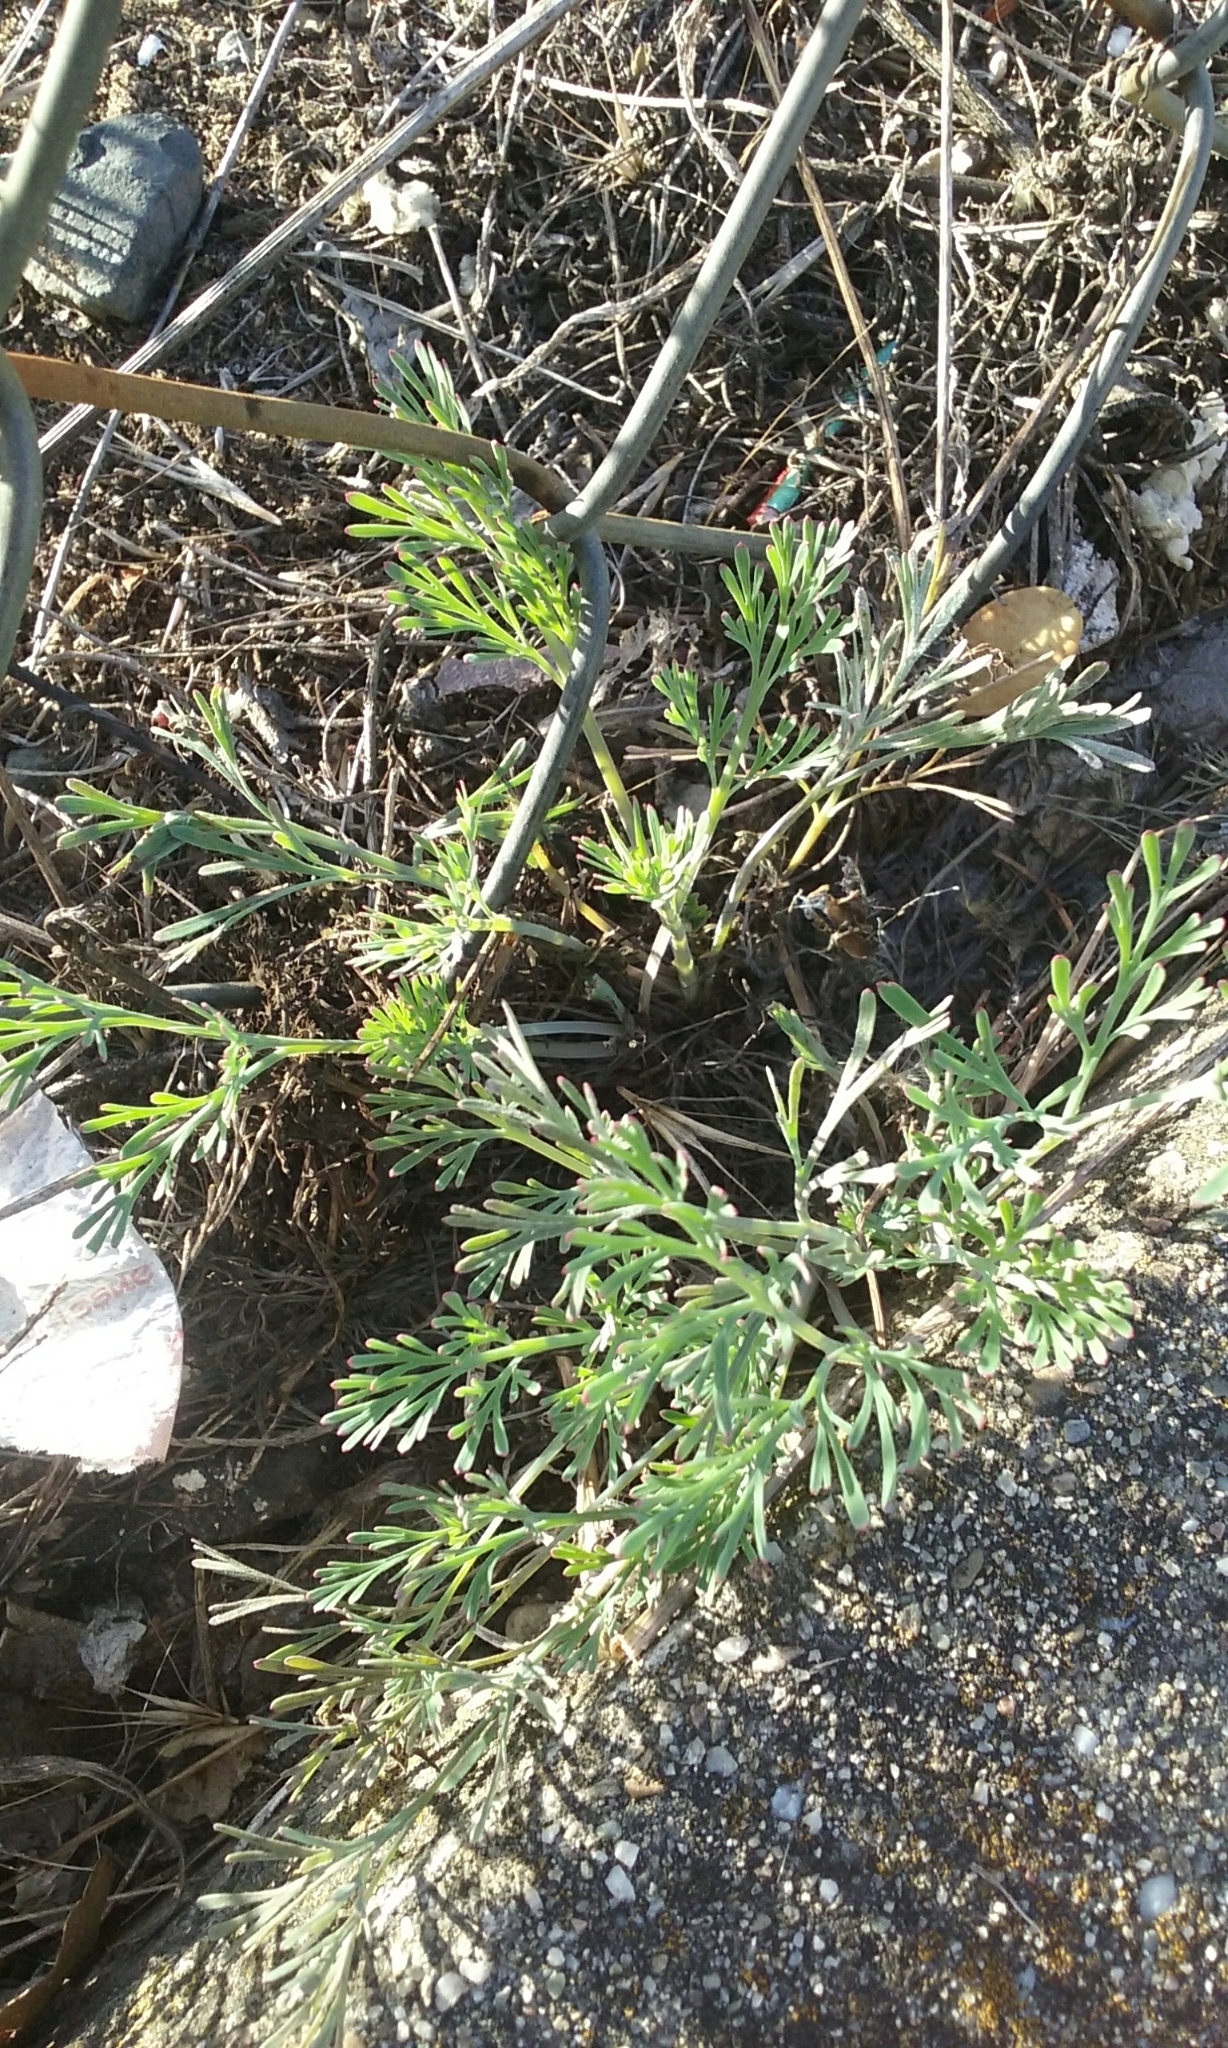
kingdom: Plantae
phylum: Tracheophyta
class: Magnoliopsida
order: Ranunculales
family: Papaveraceae
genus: Eschscholzia
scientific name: Eschscholzia californica
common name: California poppy
